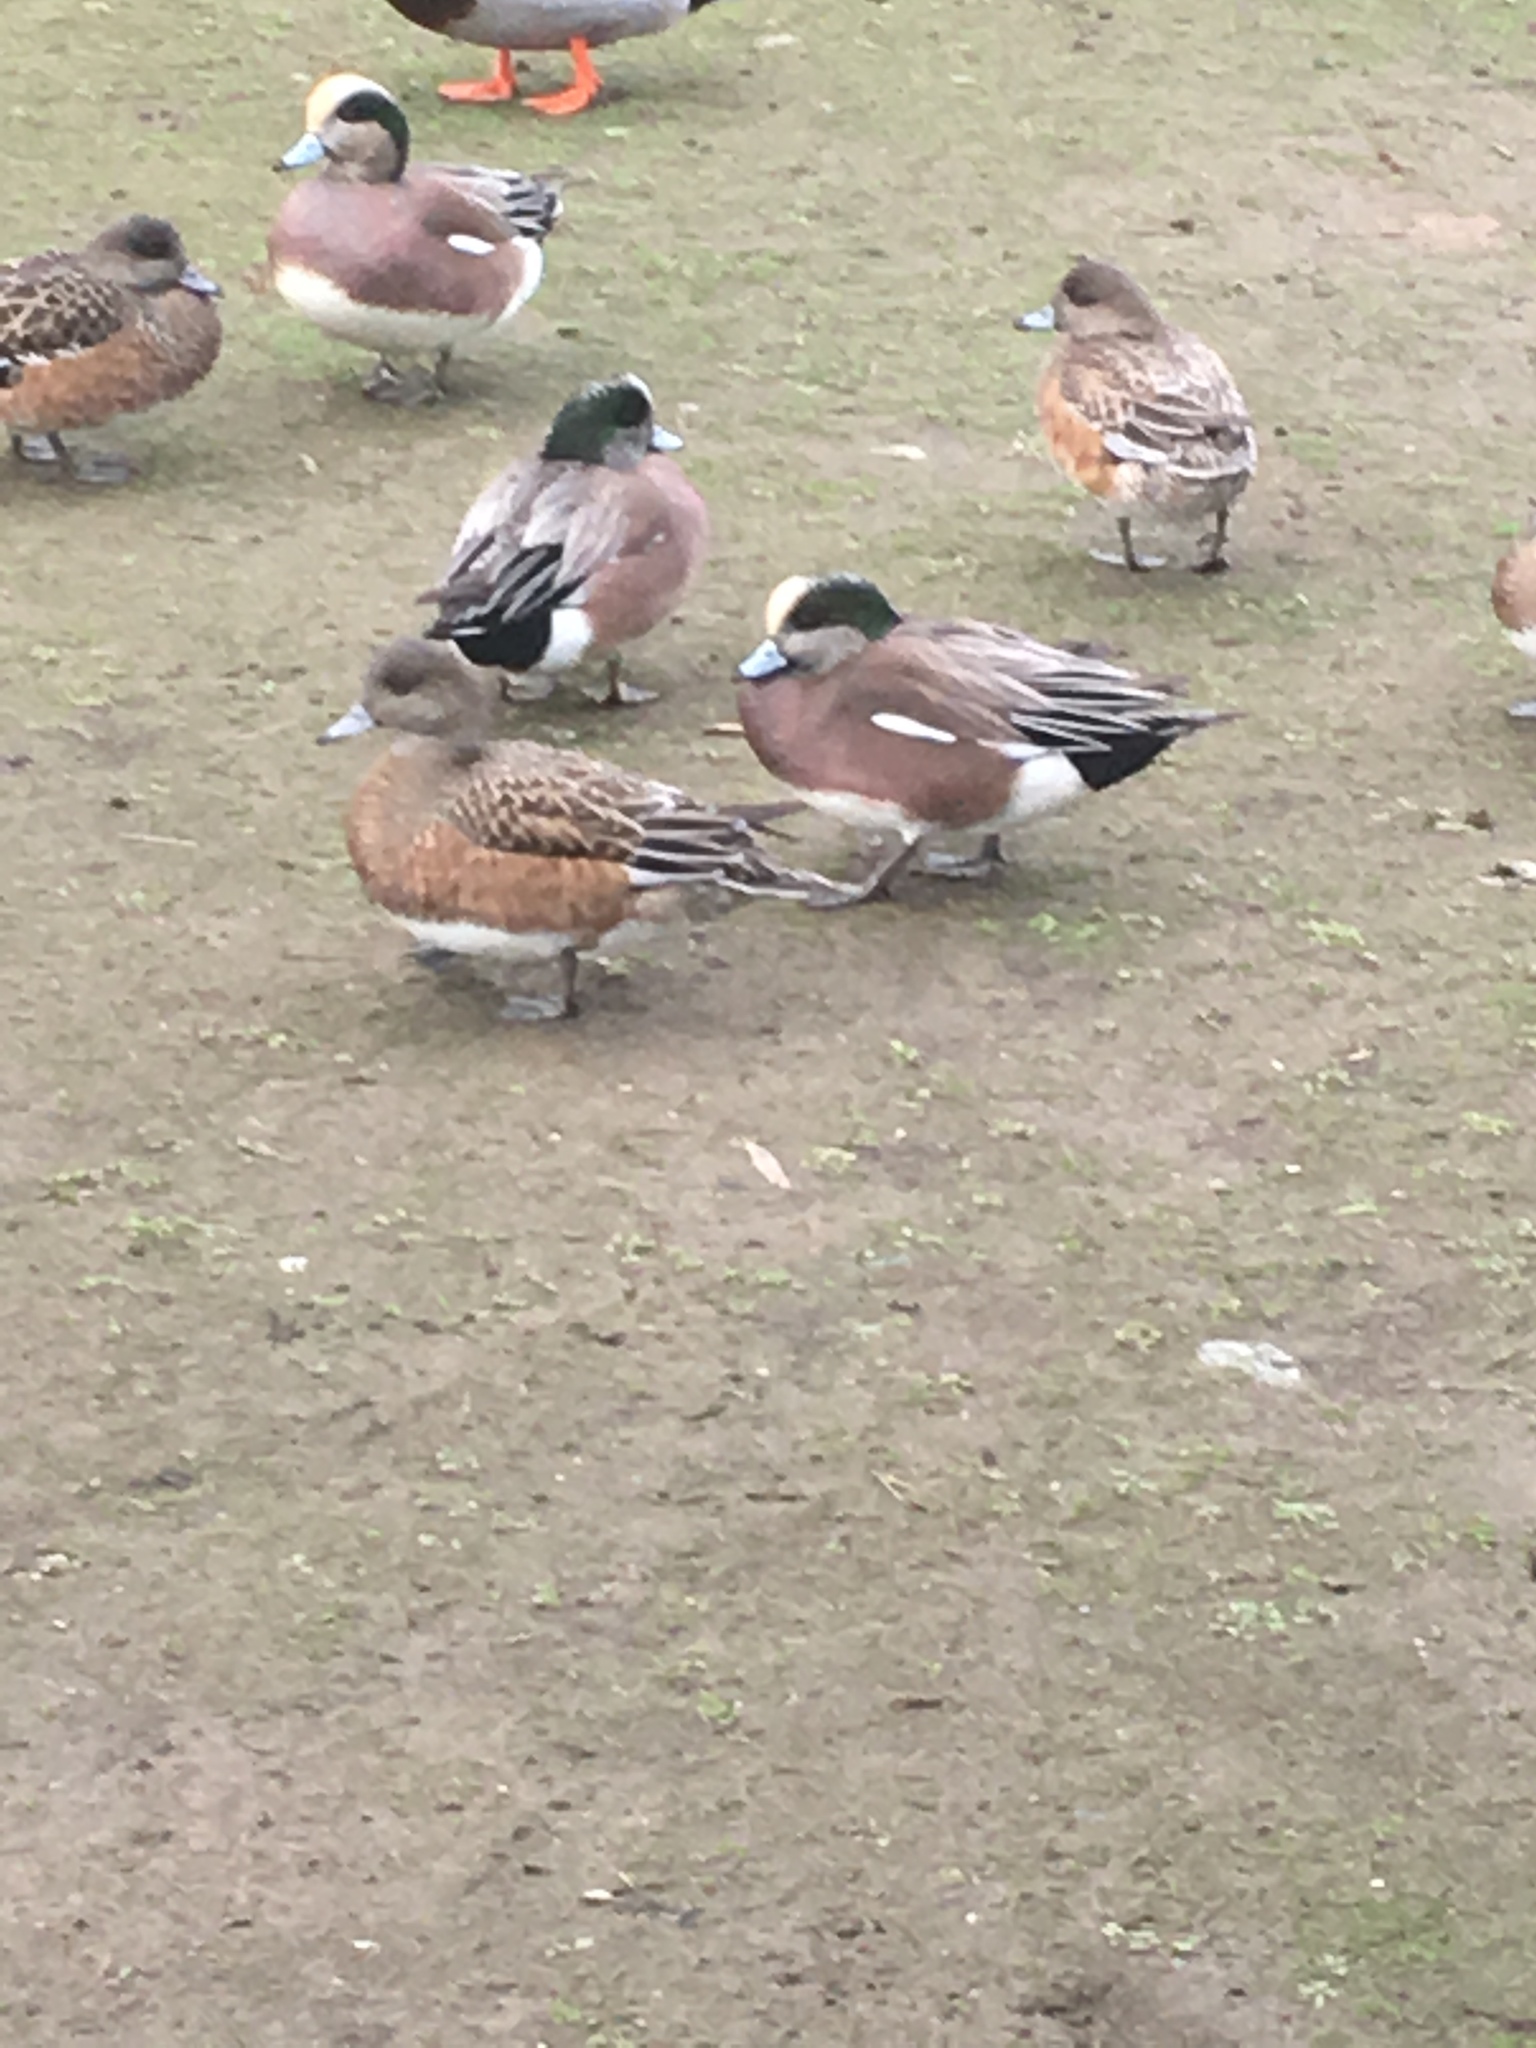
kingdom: Animalia
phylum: Chordata
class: Aves
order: Anseriformes
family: Anatidae
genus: Mareca
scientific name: Mareca americana
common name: American wigeon
